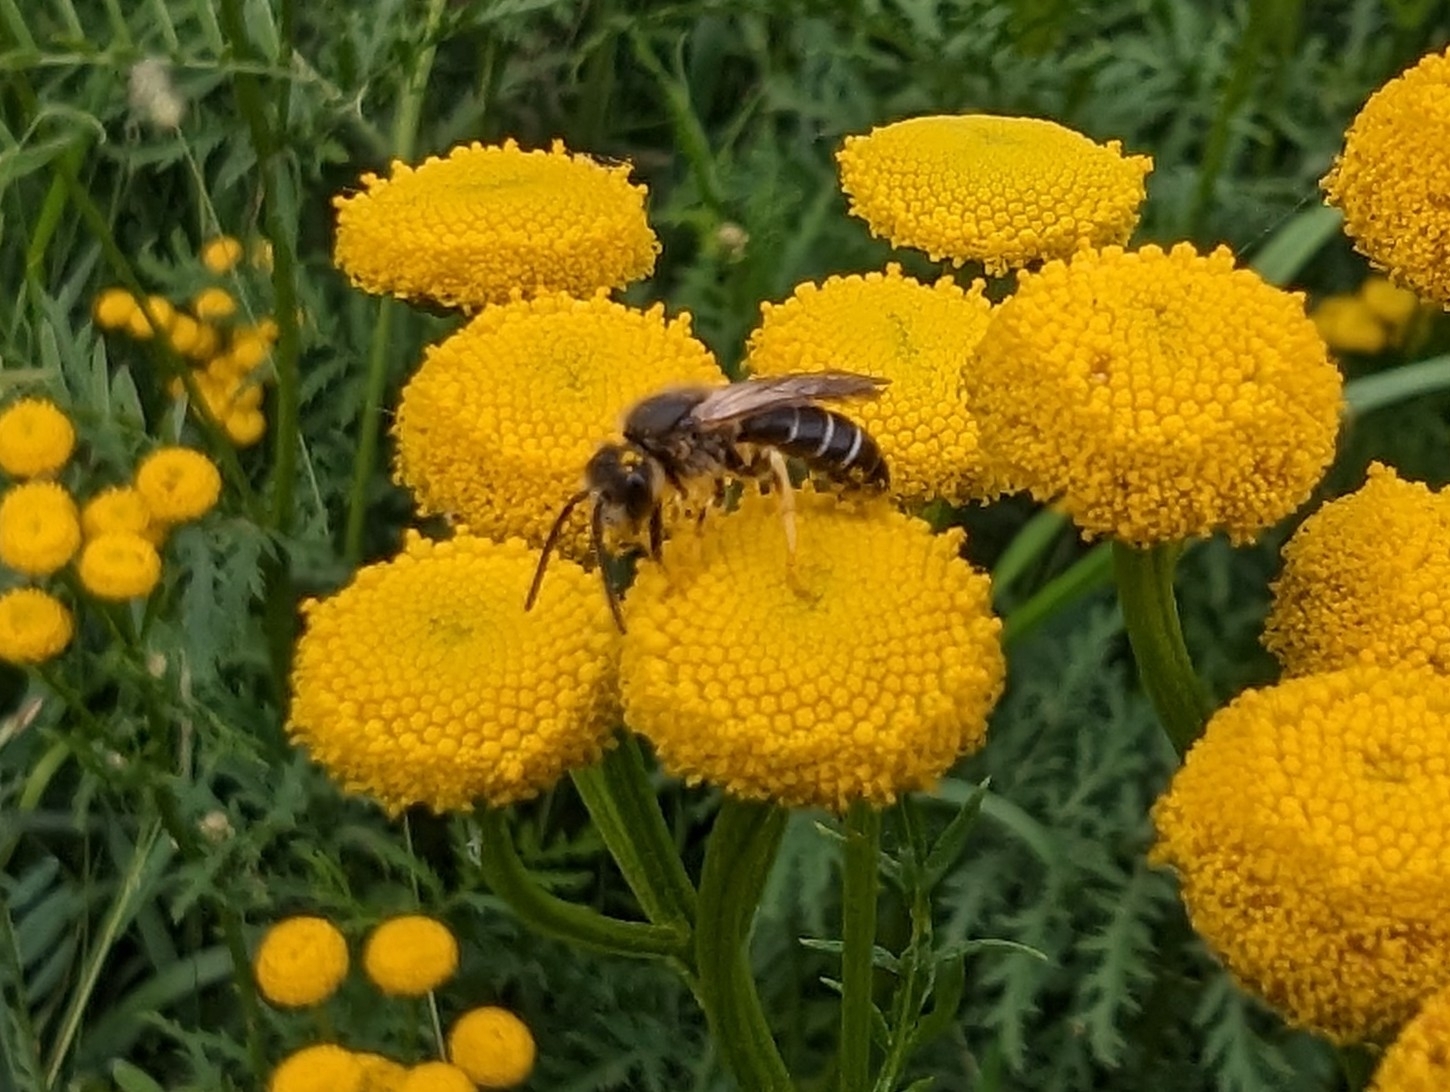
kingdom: Animalia
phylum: Arthropoda
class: Insecta
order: Hymenoptera
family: Halictidae
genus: Halictus
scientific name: Halictus rubicundus
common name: Orange-legged furrow bee
